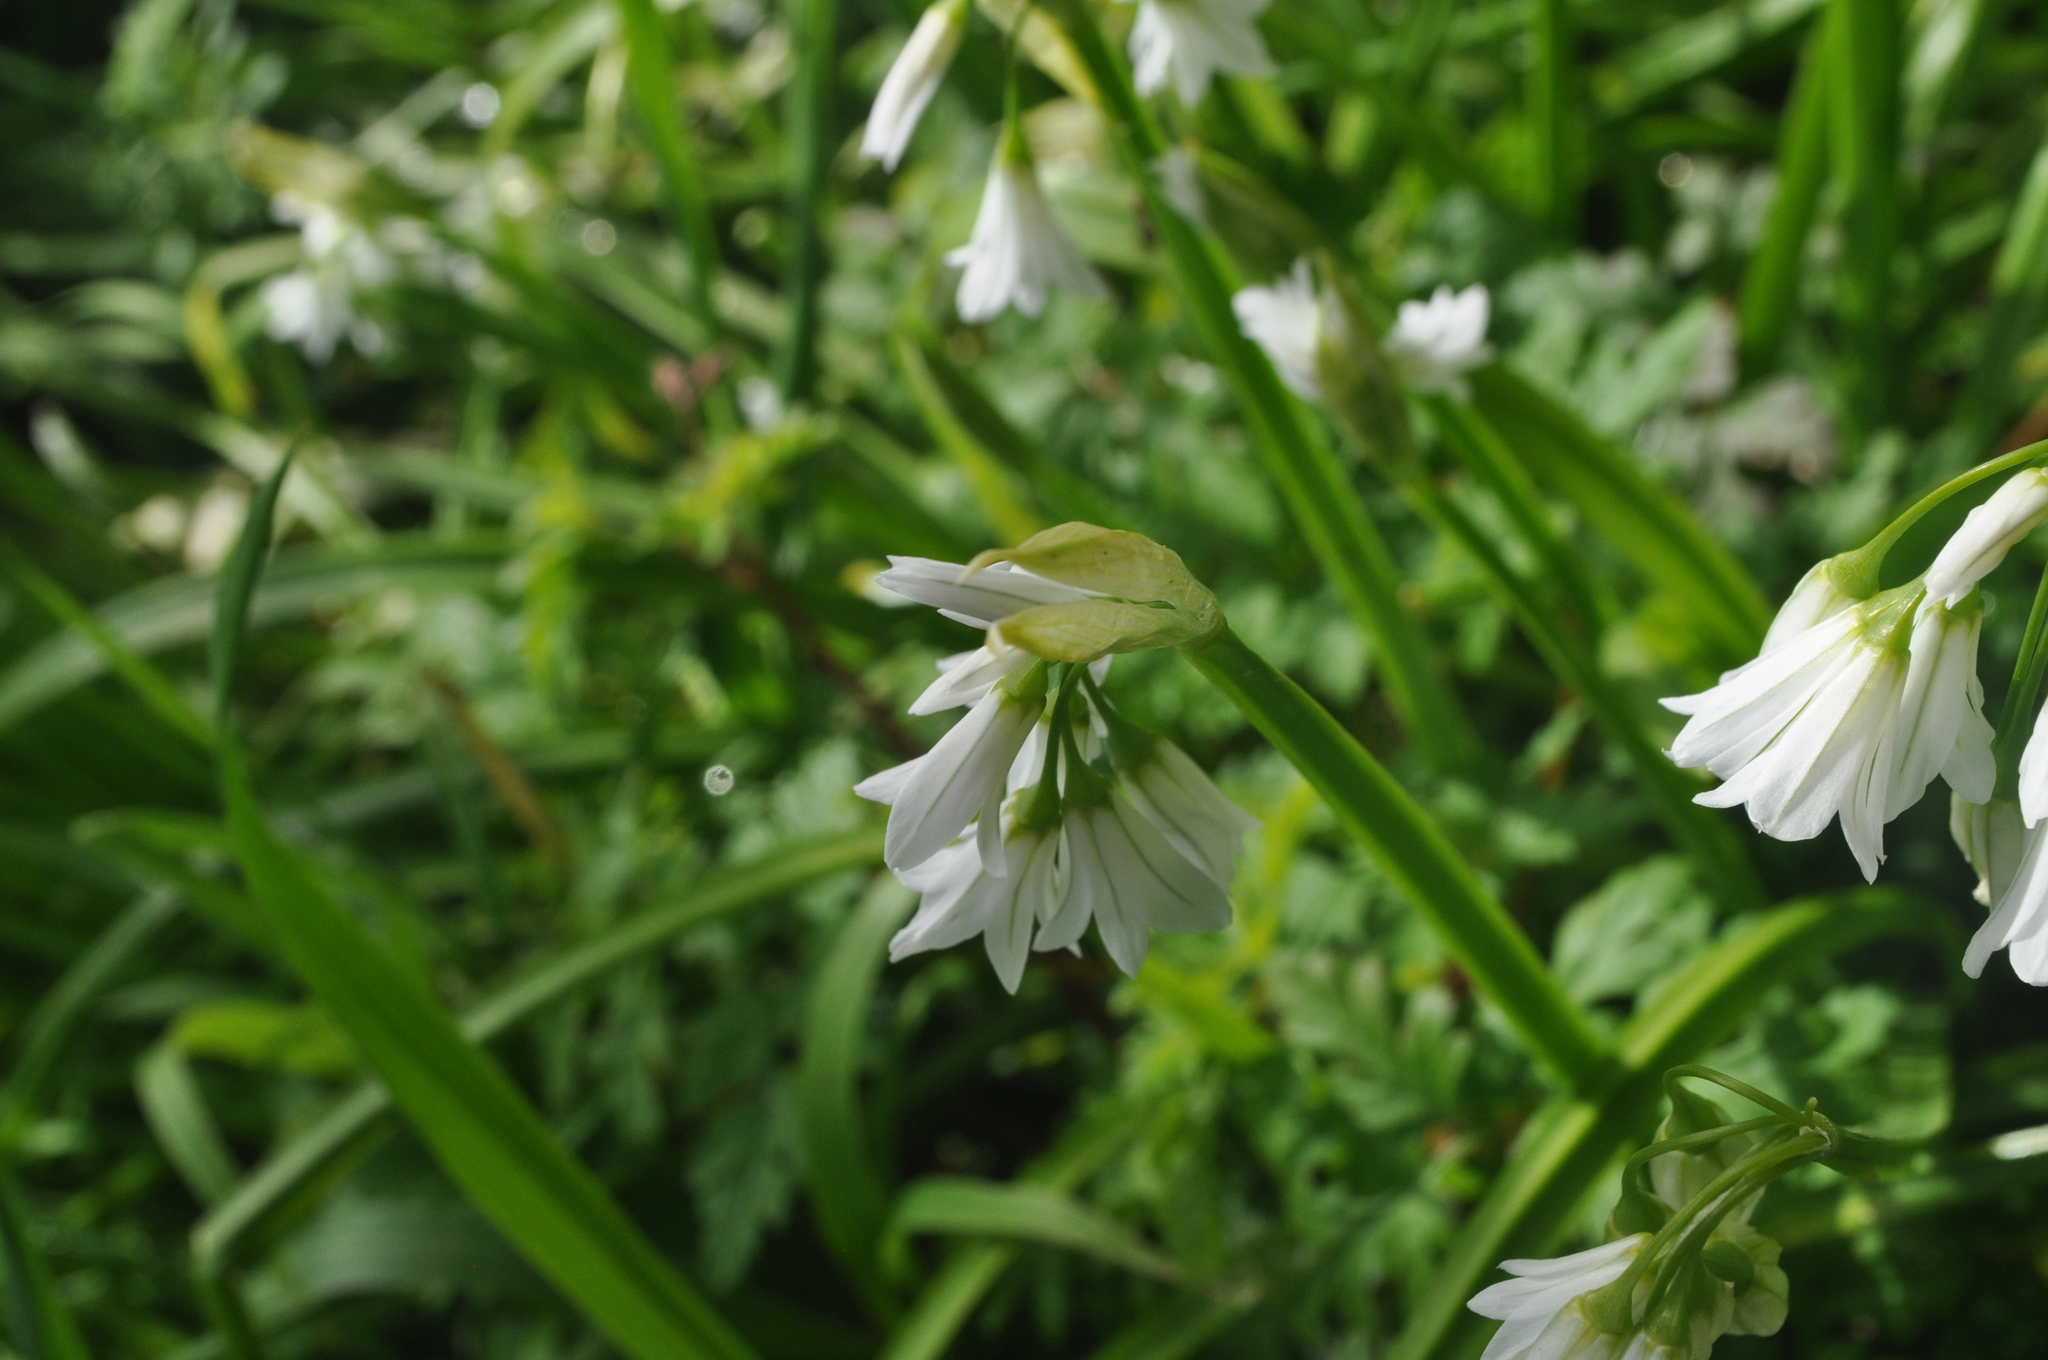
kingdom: Plantae
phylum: Tracheophyta
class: Liliopsida
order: Asparagales
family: Amaryllidaceae
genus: Allium
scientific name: Allium triquetrum
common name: Three-cornered garlic
